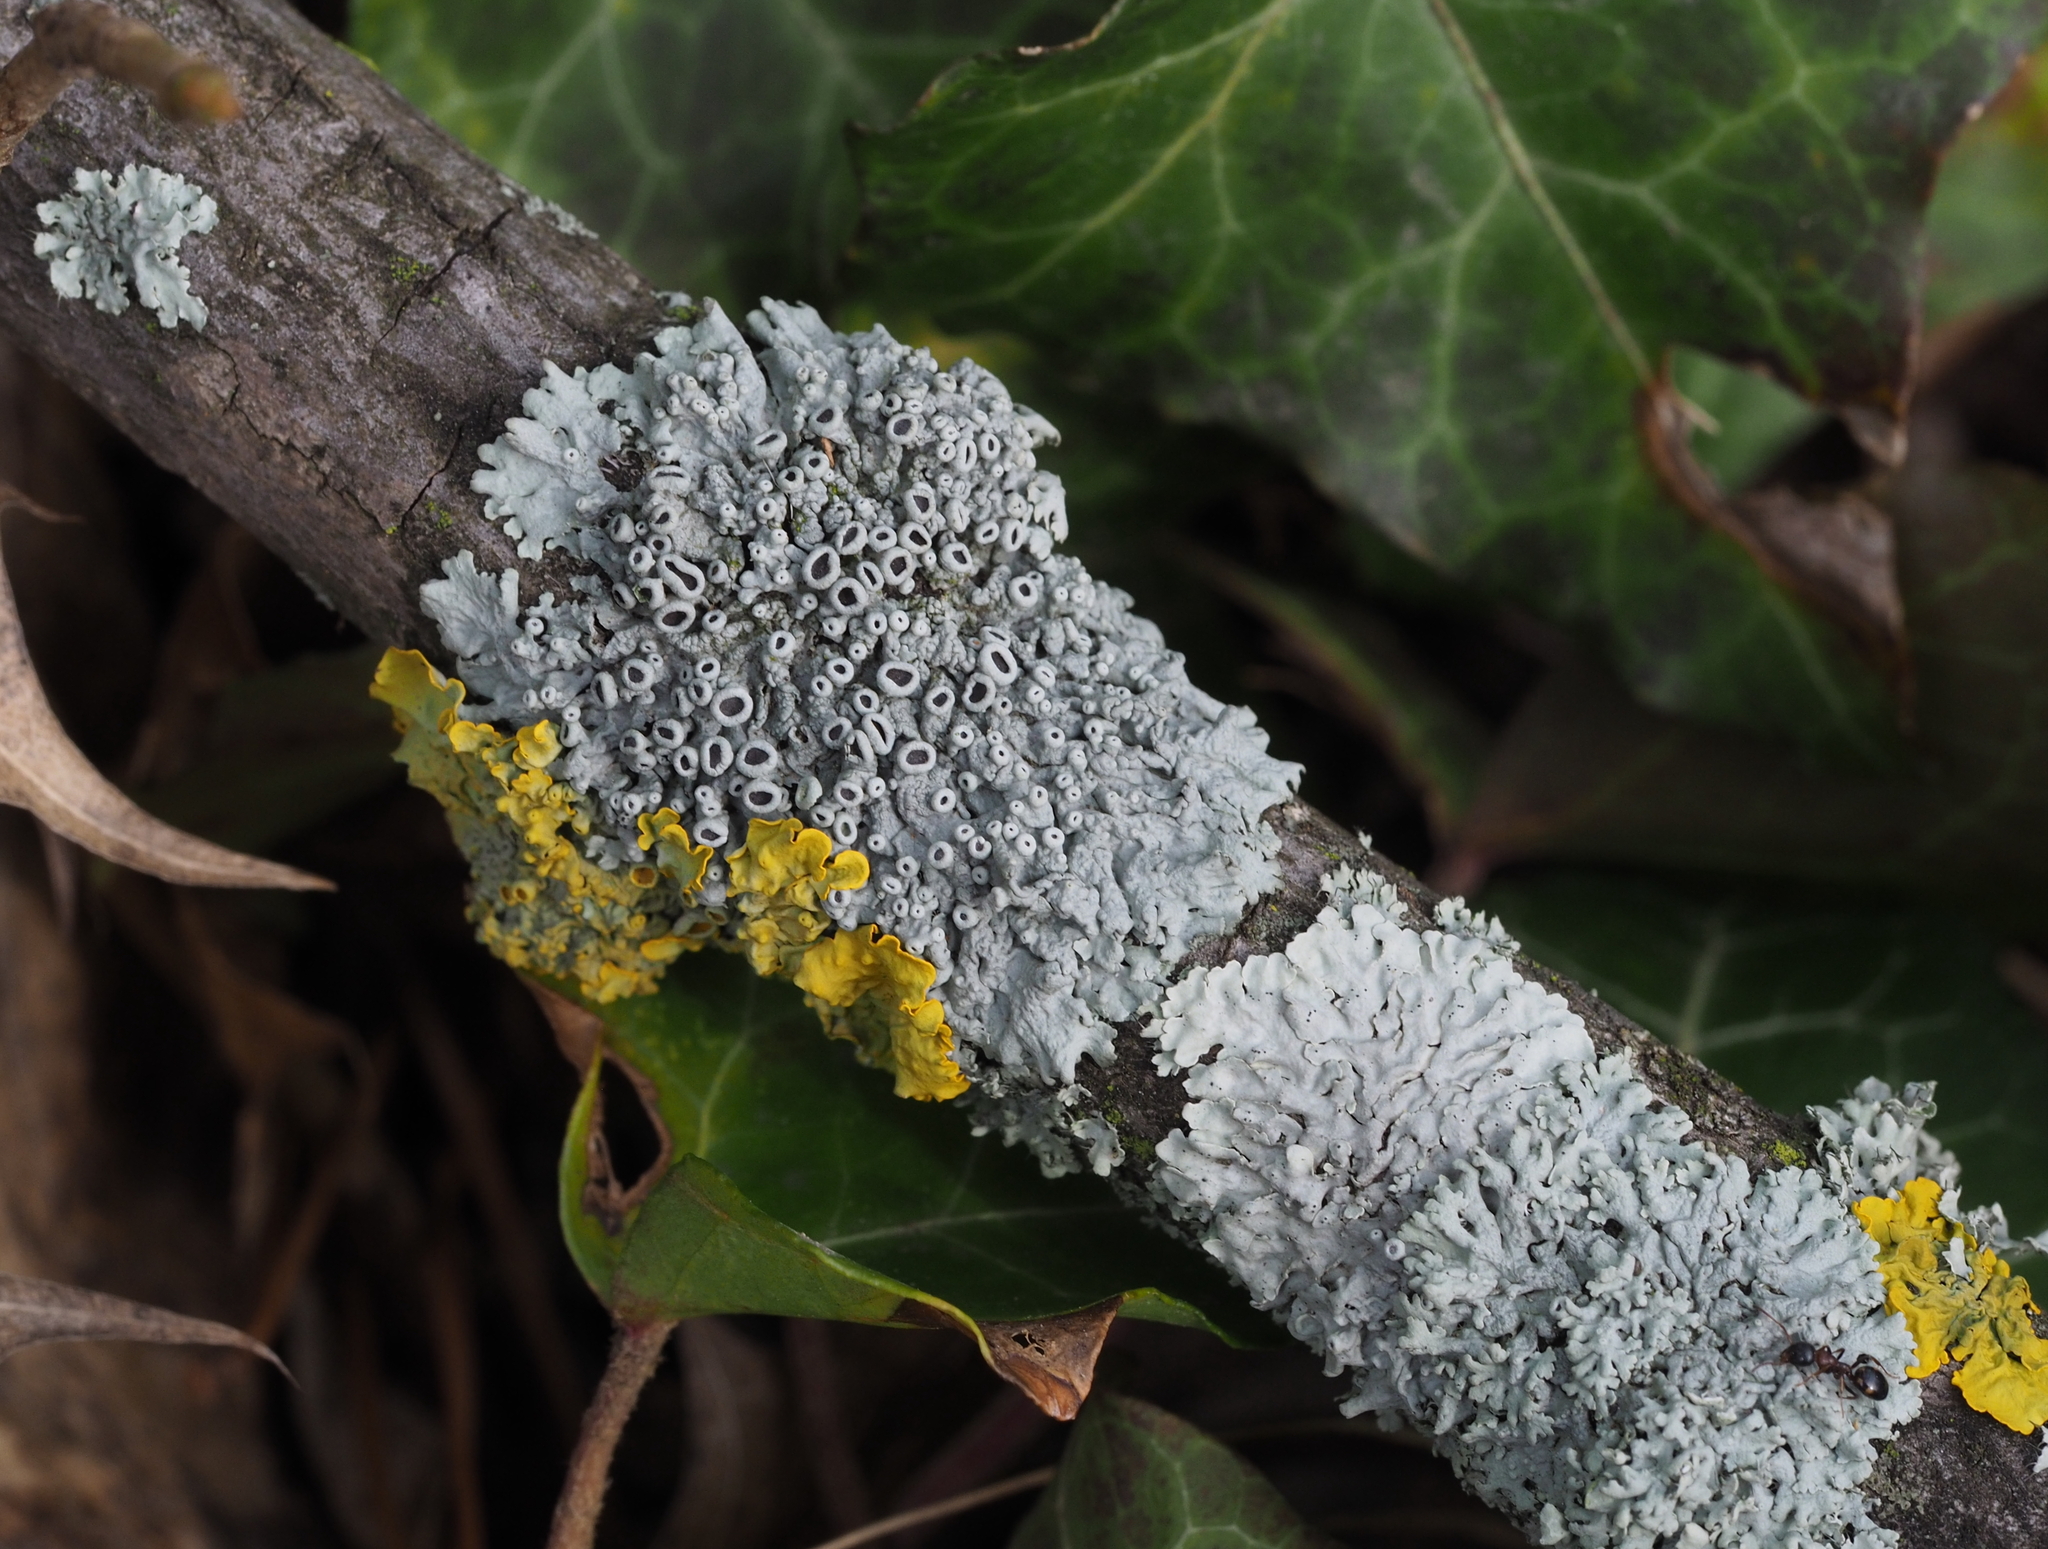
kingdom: Fungi
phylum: Ascomycota
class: Lecanoromycetes
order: Caliciales
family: Physciaceae
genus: Physcia
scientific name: Physcia stellaris
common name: Star rosette lichen
